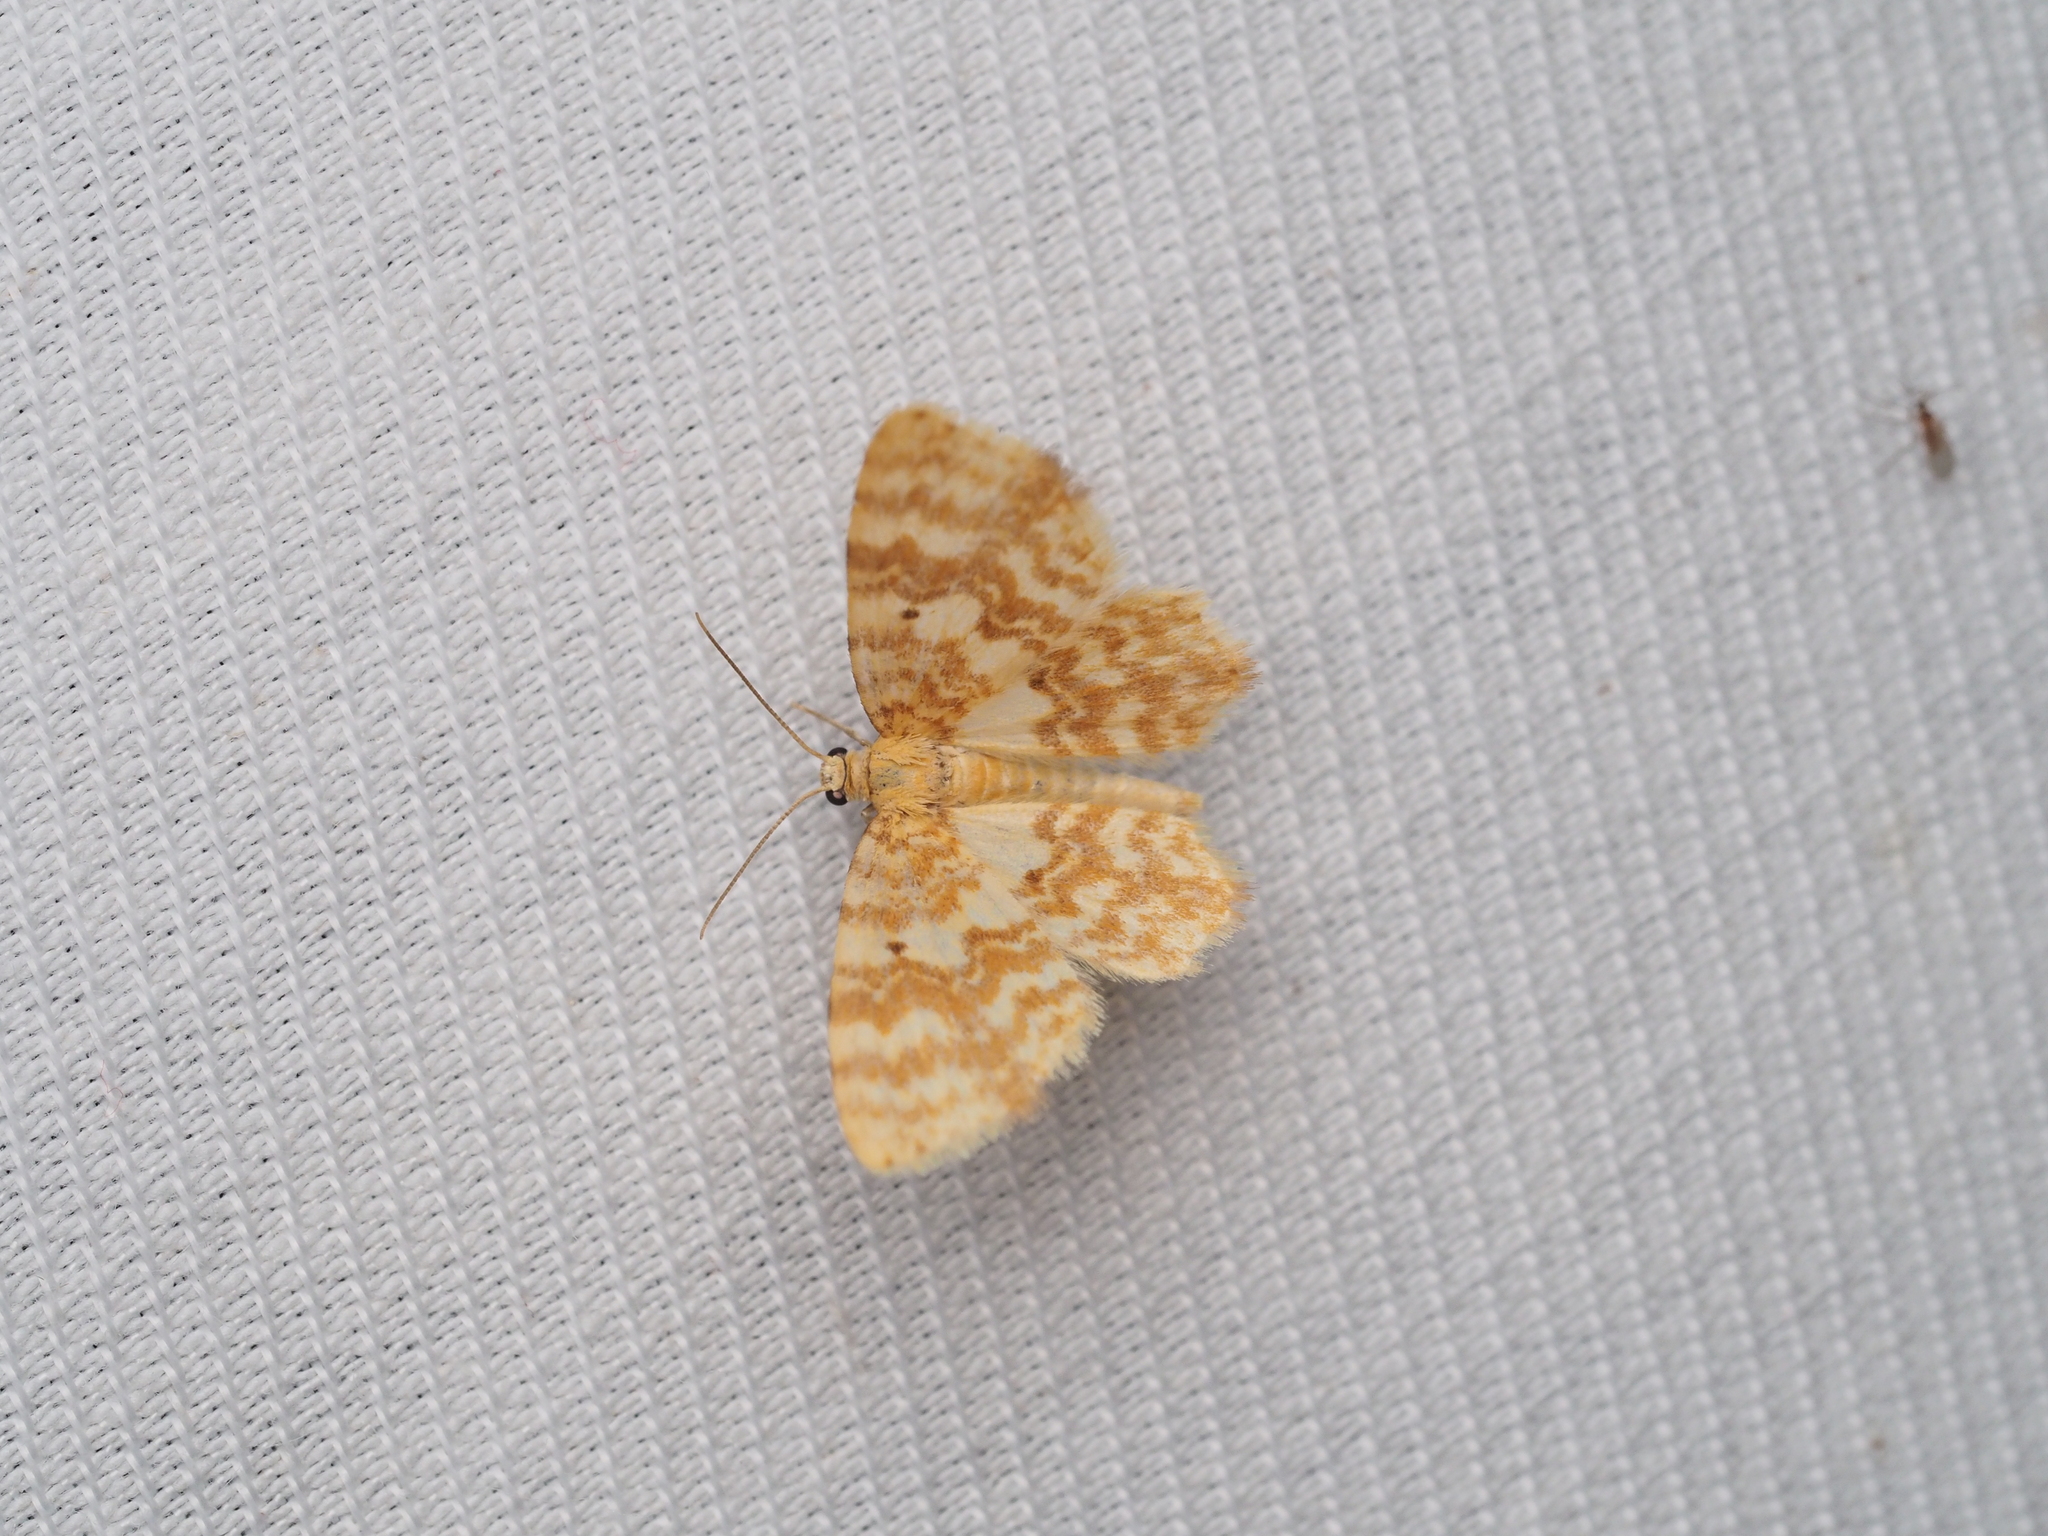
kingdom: Animalia
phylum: Arthropoda
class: Insecta
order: Lepidoptera
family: Geometridae
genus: Hydrelia
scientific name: Hydrelia flammeolaria
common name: Small yellow wave
